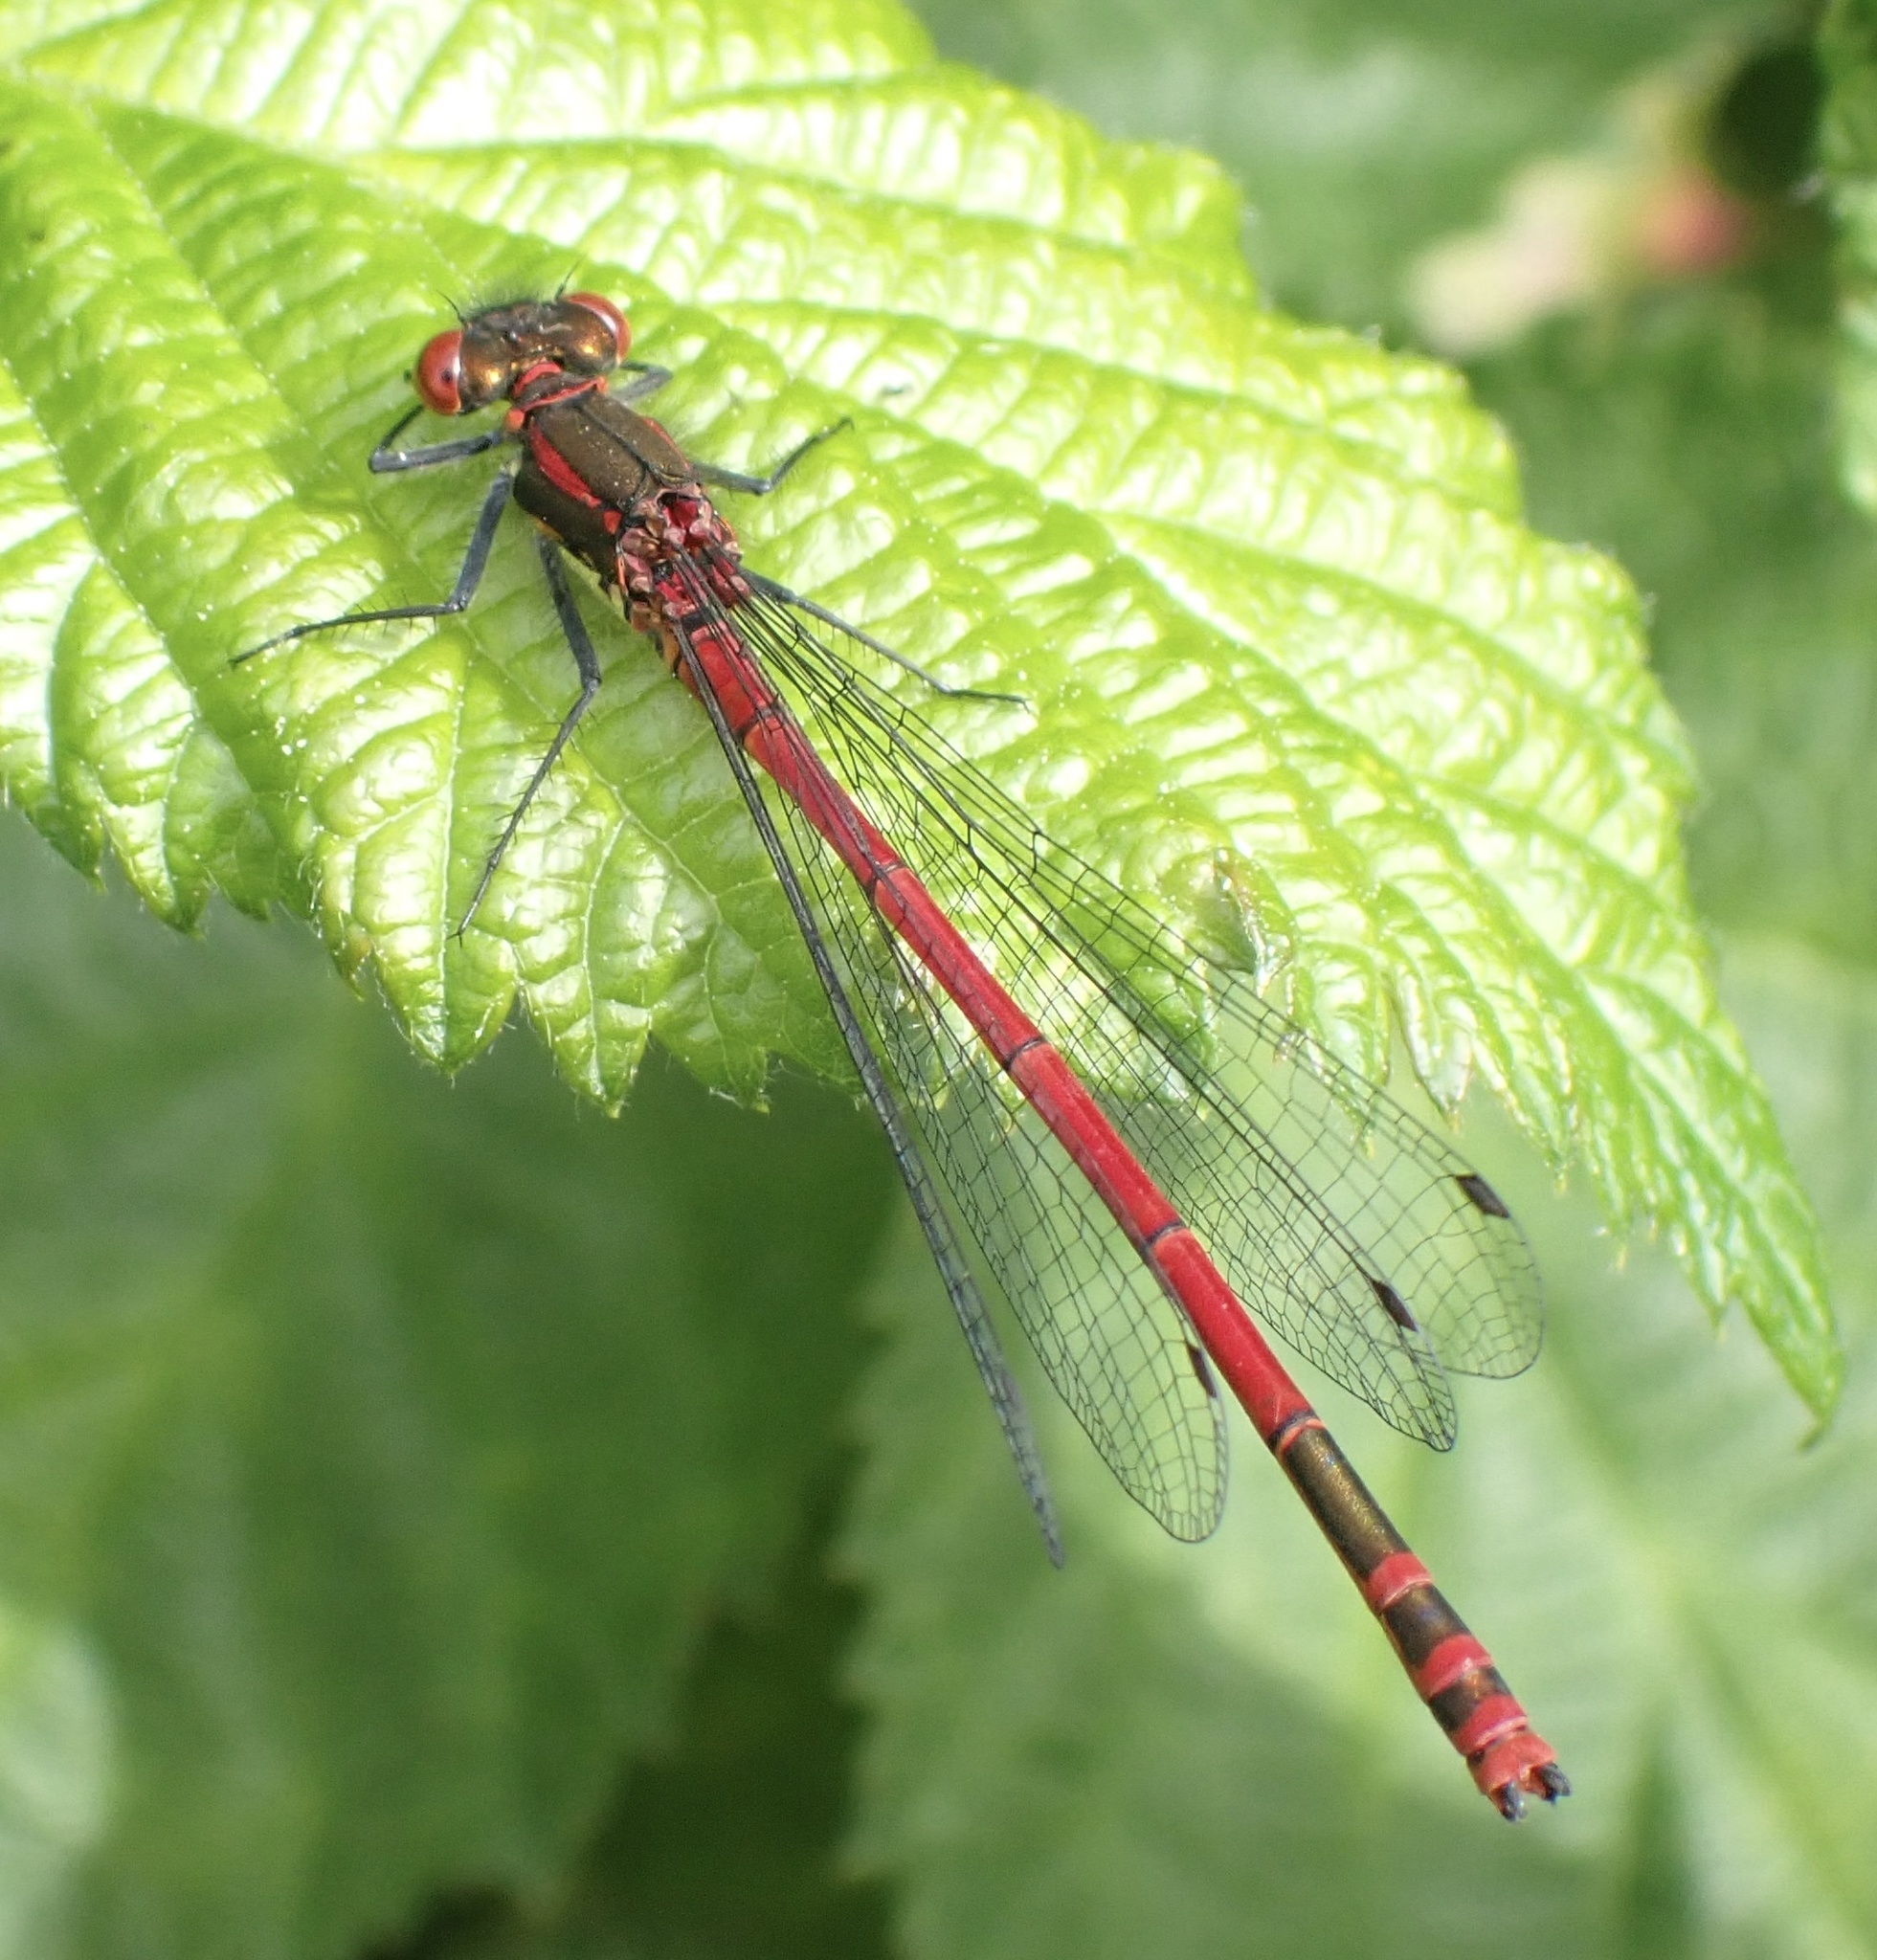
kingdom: Animalia
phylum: Arthropoda
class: Insecta
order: Odonata
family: Coenagrionidae
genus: Pyrrhosoma
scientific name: Pyrrhosoma nymphula
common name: Large red damsel
